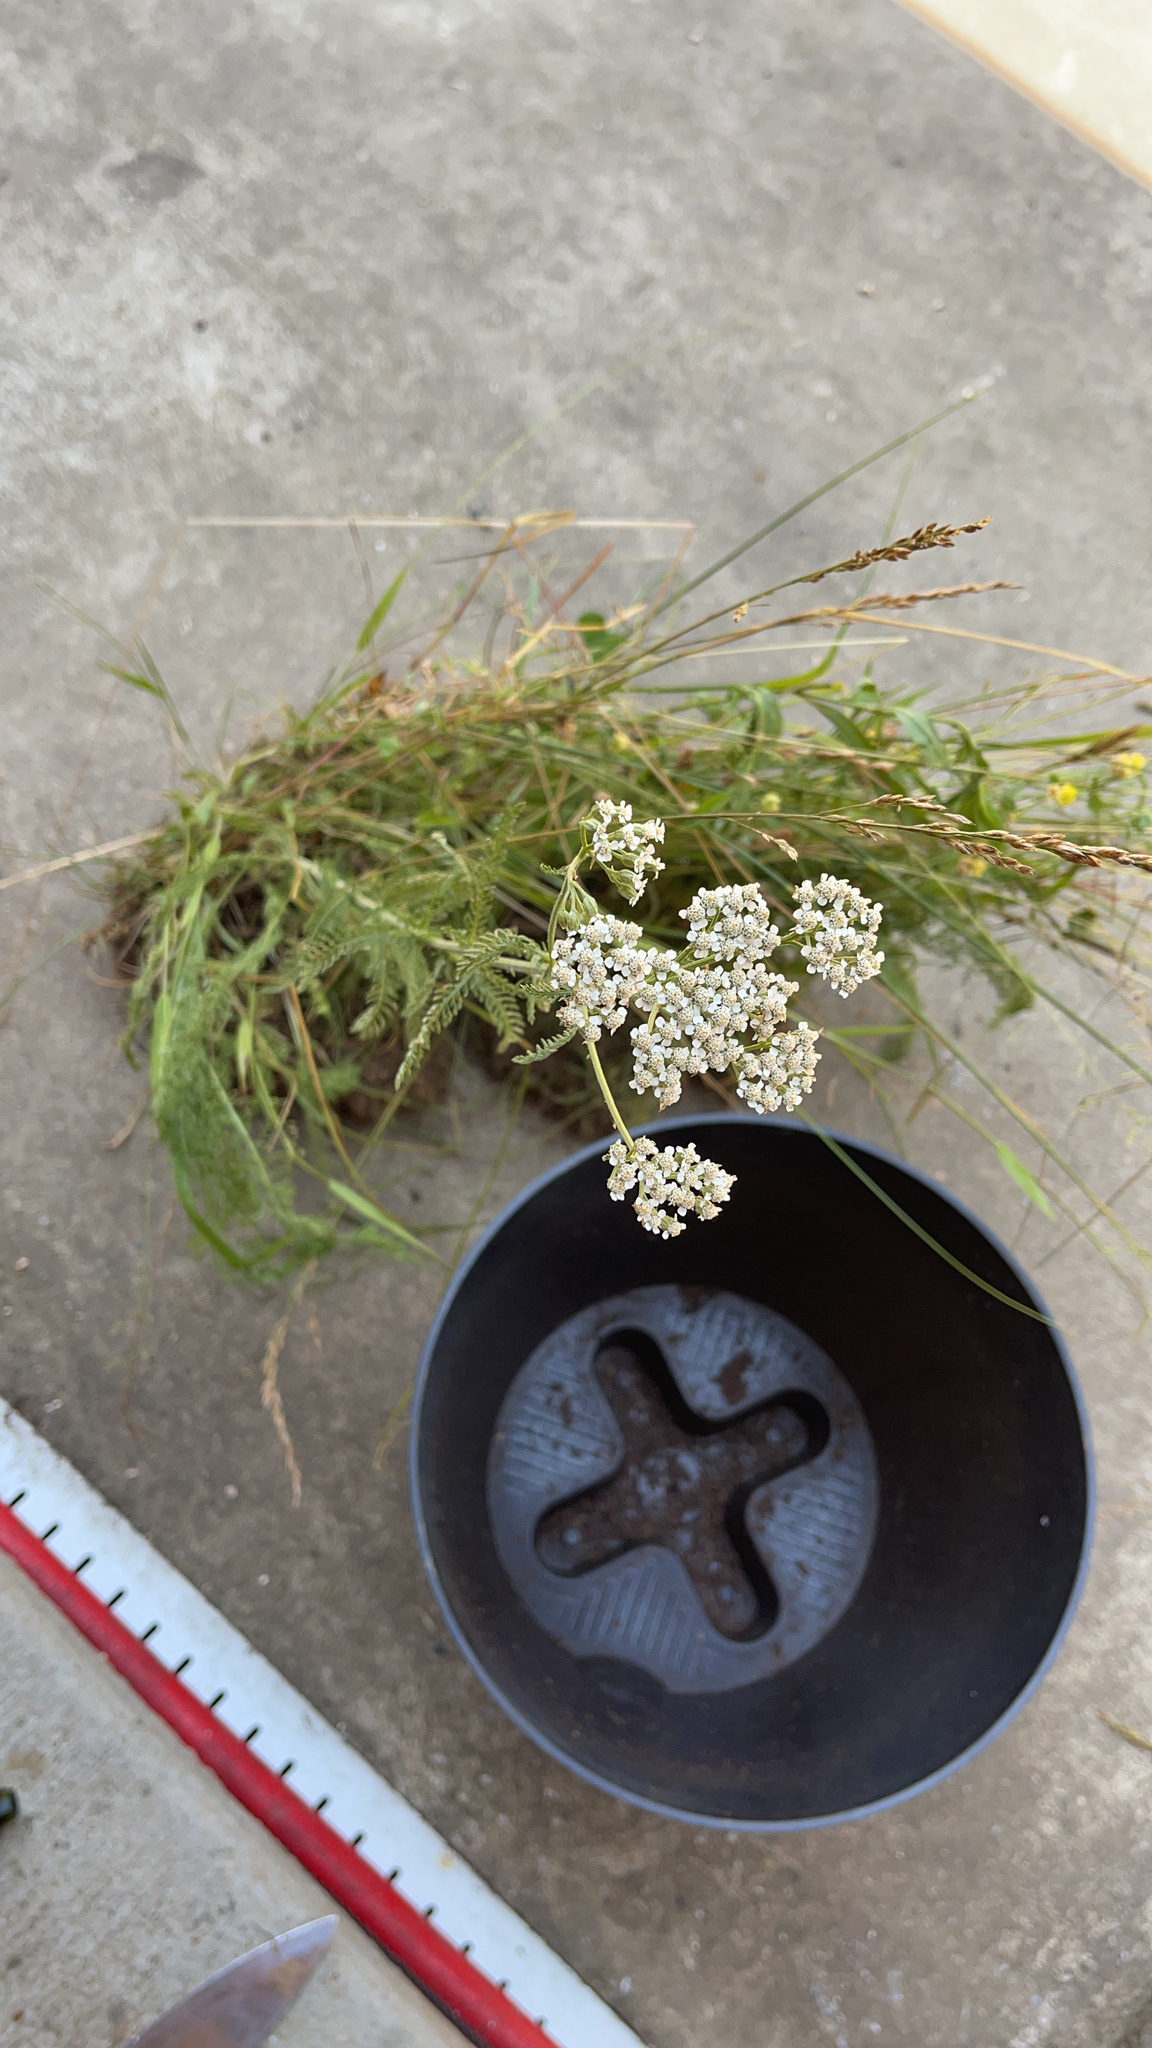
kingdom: Plantae
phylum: Tracheophyta
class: Magnoliopsida
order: Asterales
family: Asteraceae
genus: Achillea
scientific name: Achillea millefolium
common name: Yarrow
